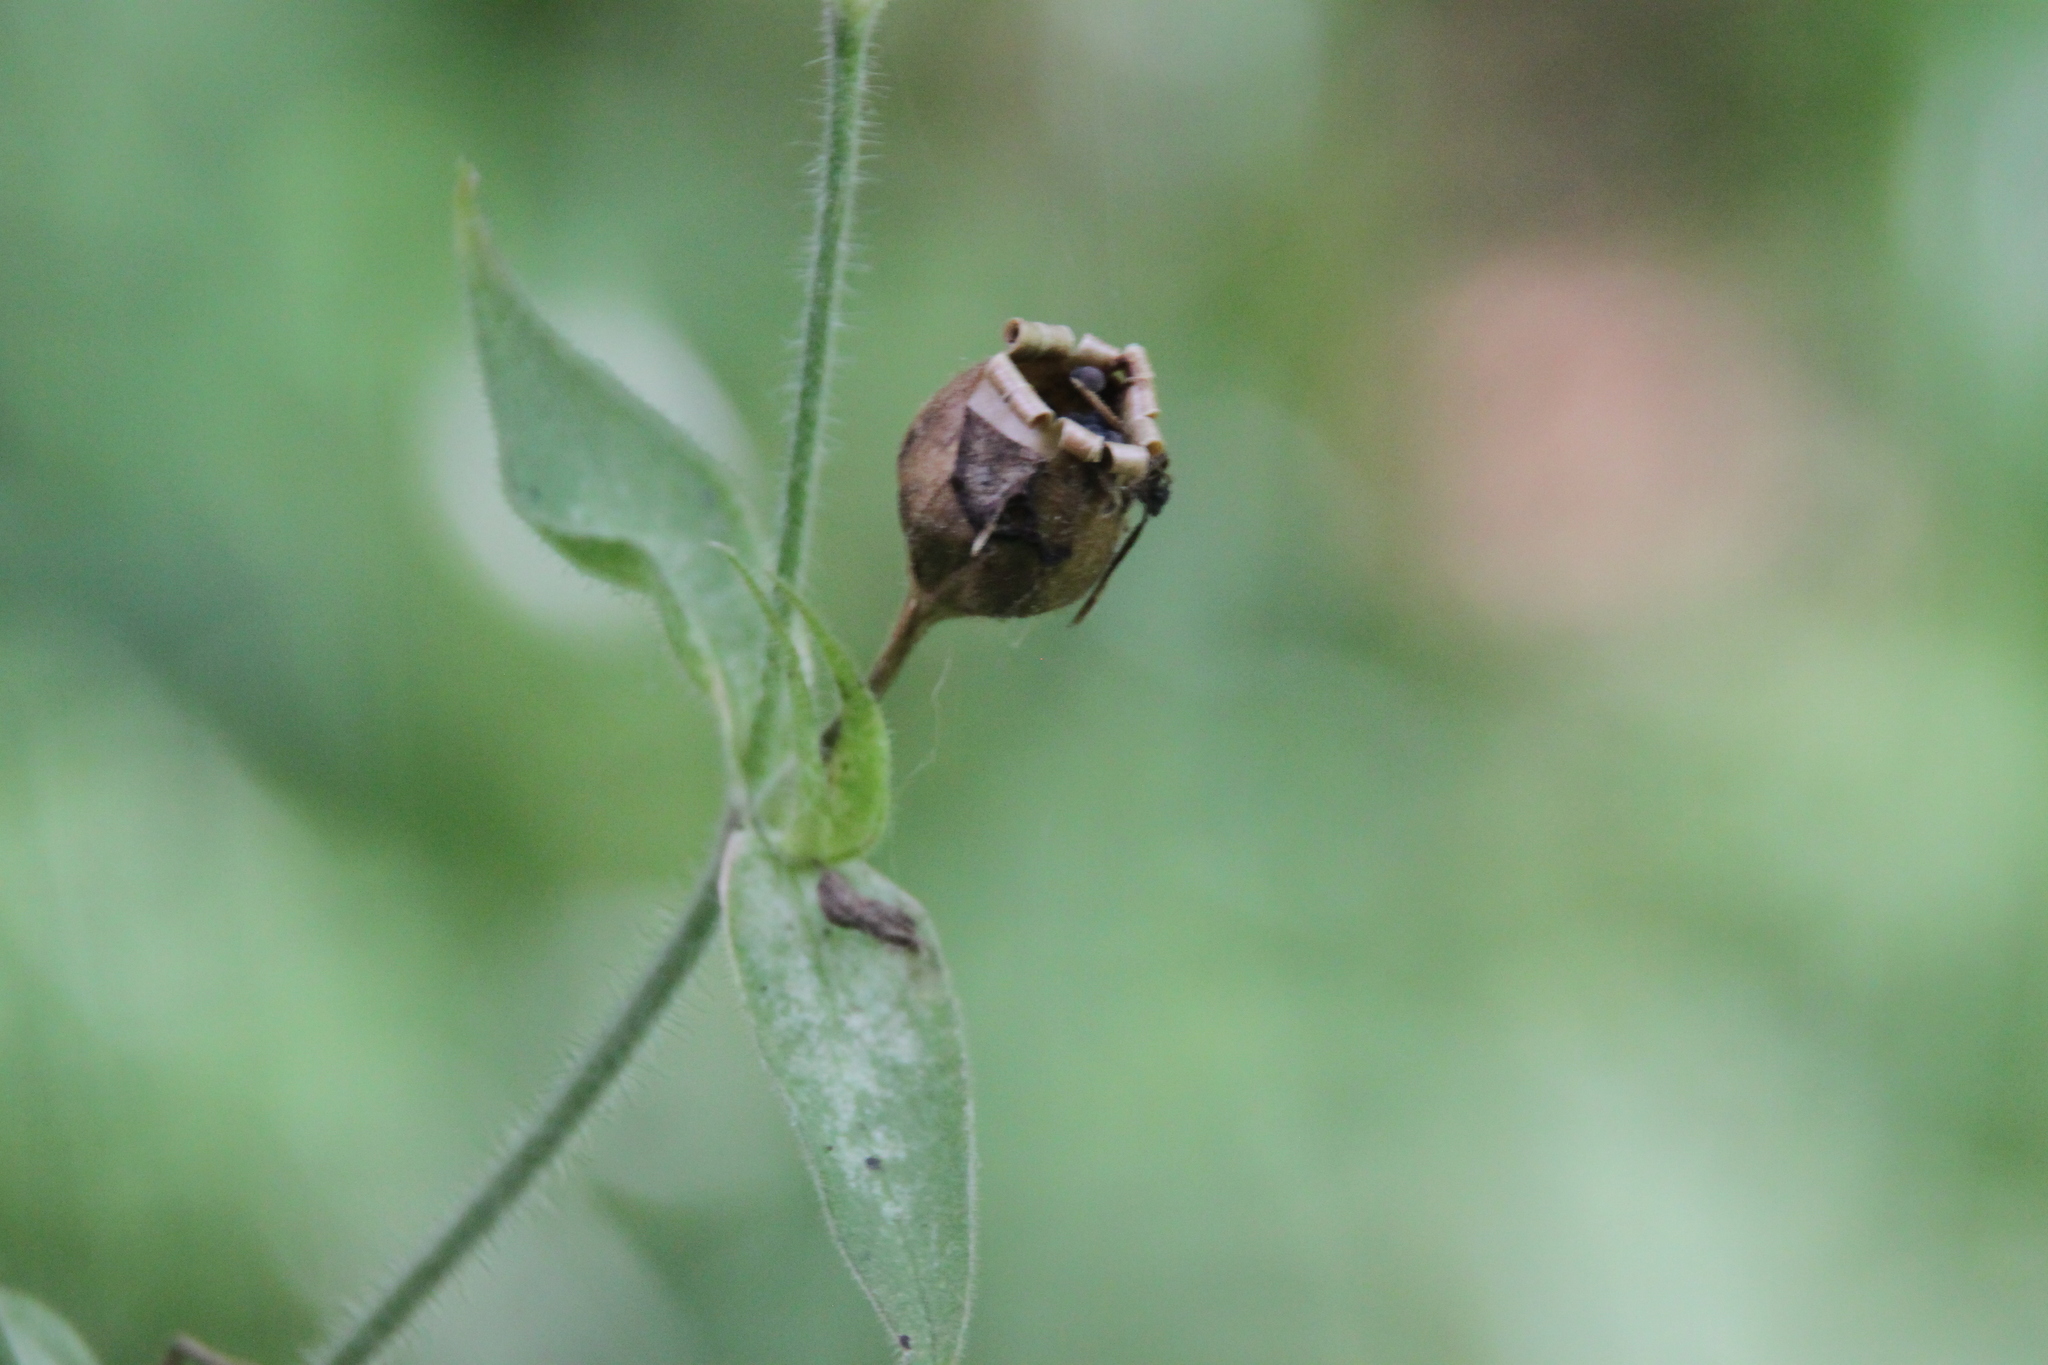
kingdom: Plantae
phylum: Tracheophyta
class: Magnoliopsida
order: Caryophyllales
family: Caryophyllaceae
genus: Silene
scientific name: Silene dioica
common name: Red campion
